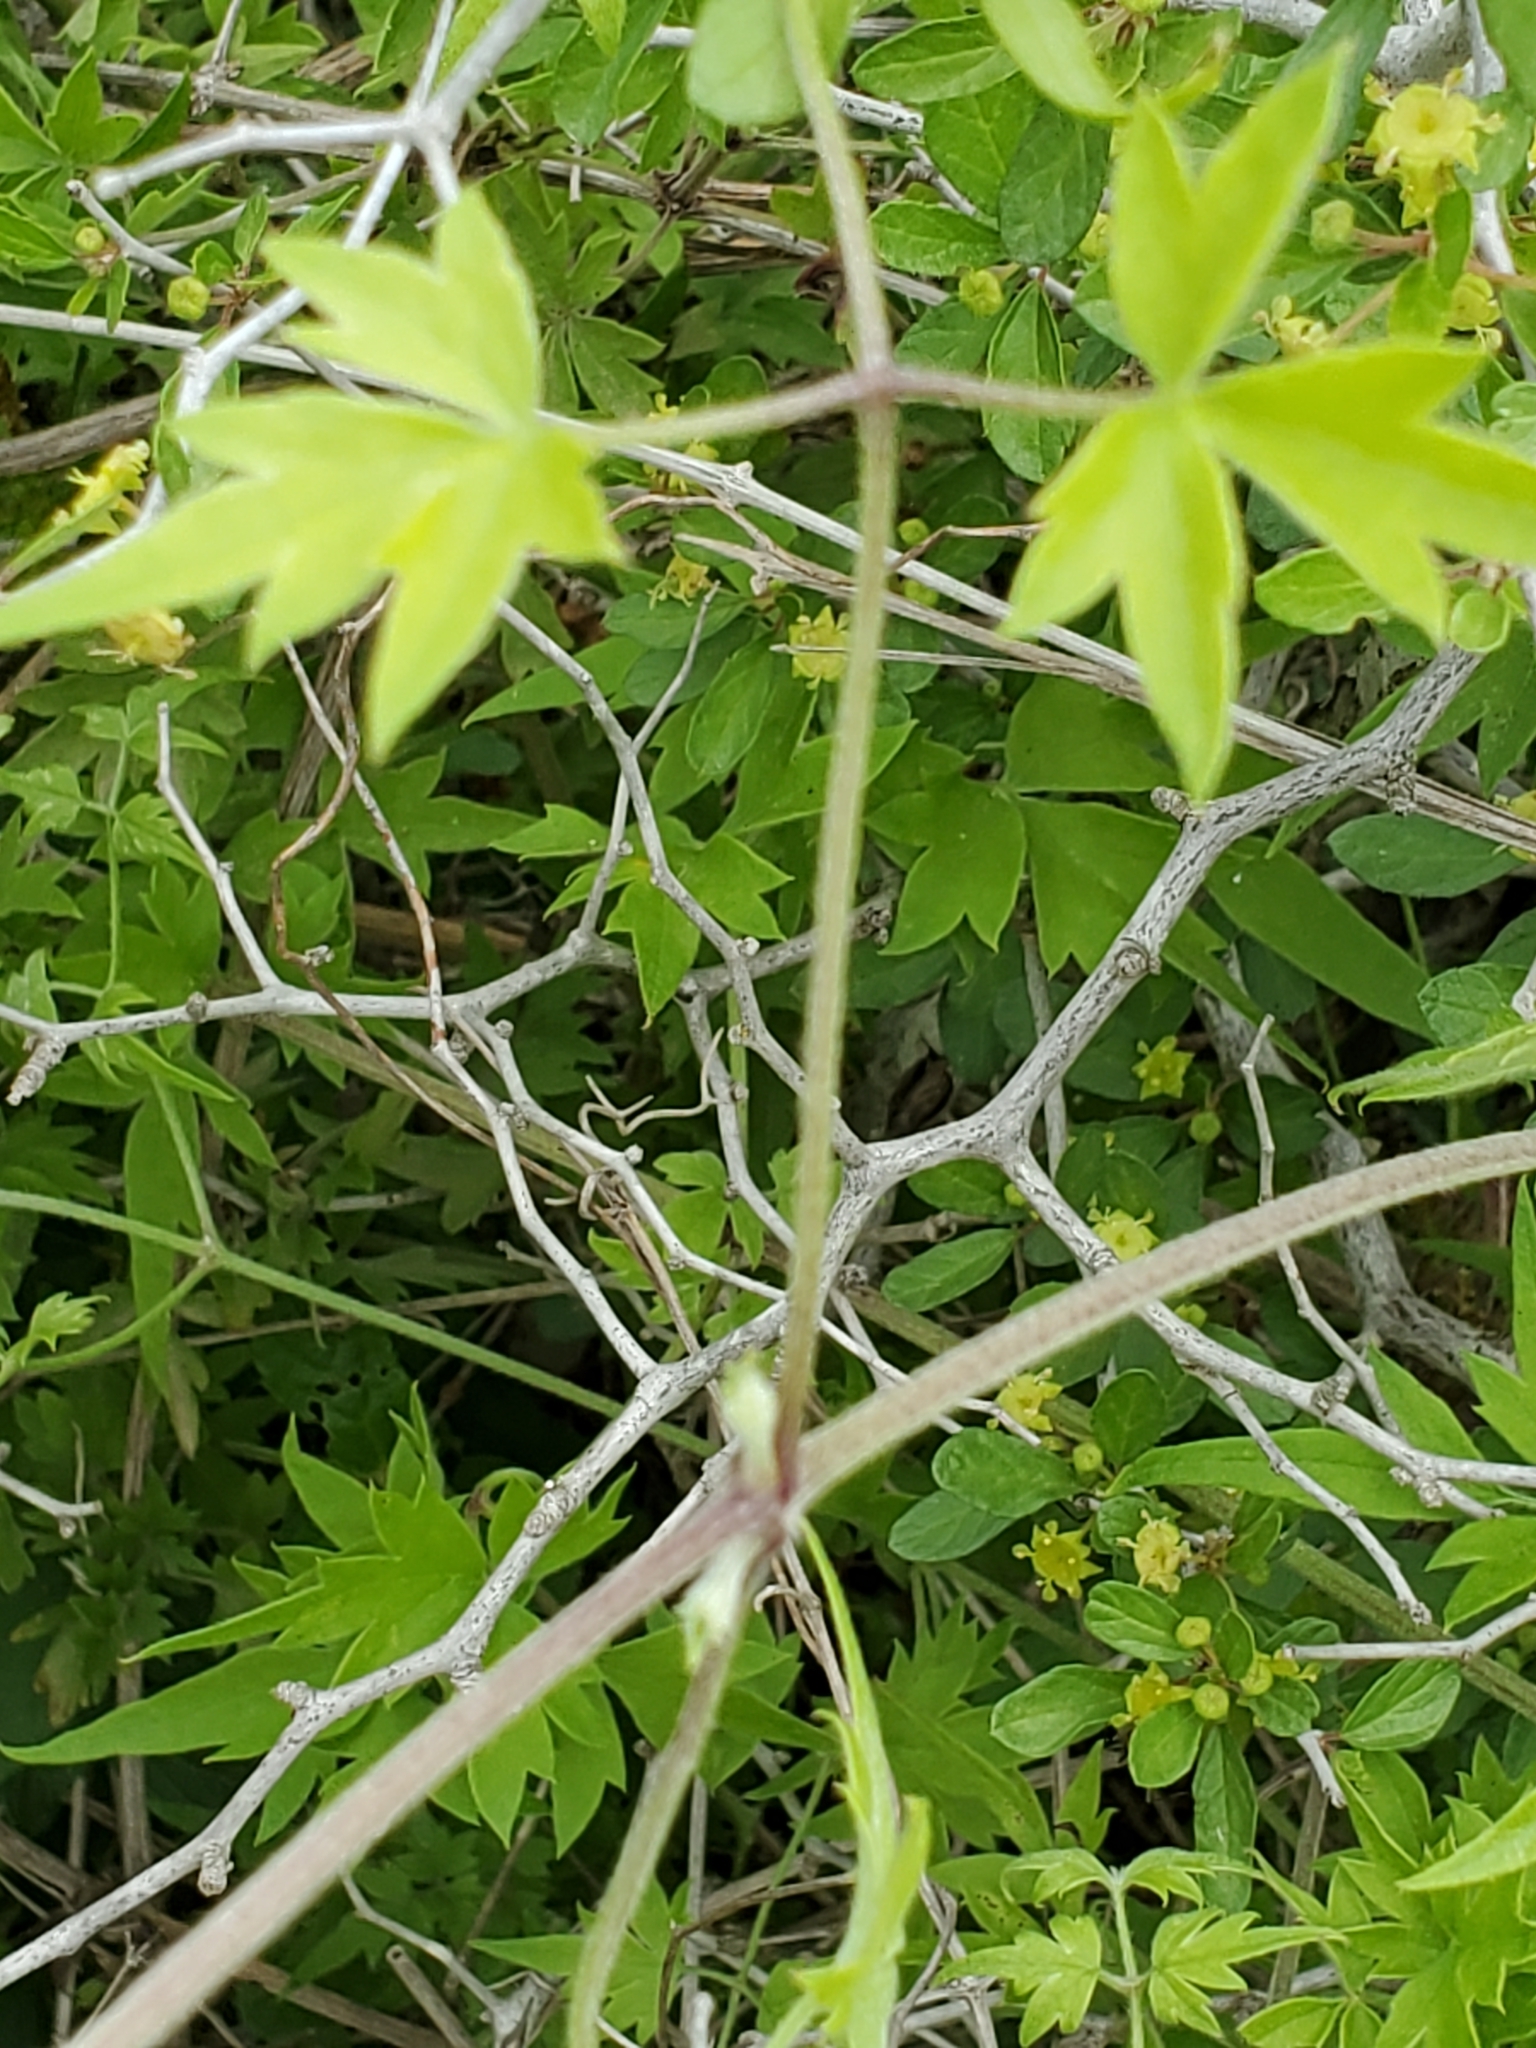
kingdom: Plantae
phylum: Tracheophyta
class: Magnoliopsida
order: Ranunculales
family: Ranunculaceae
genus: Clematis
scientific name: Clematis drummondii
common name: Texas virgin's bower
